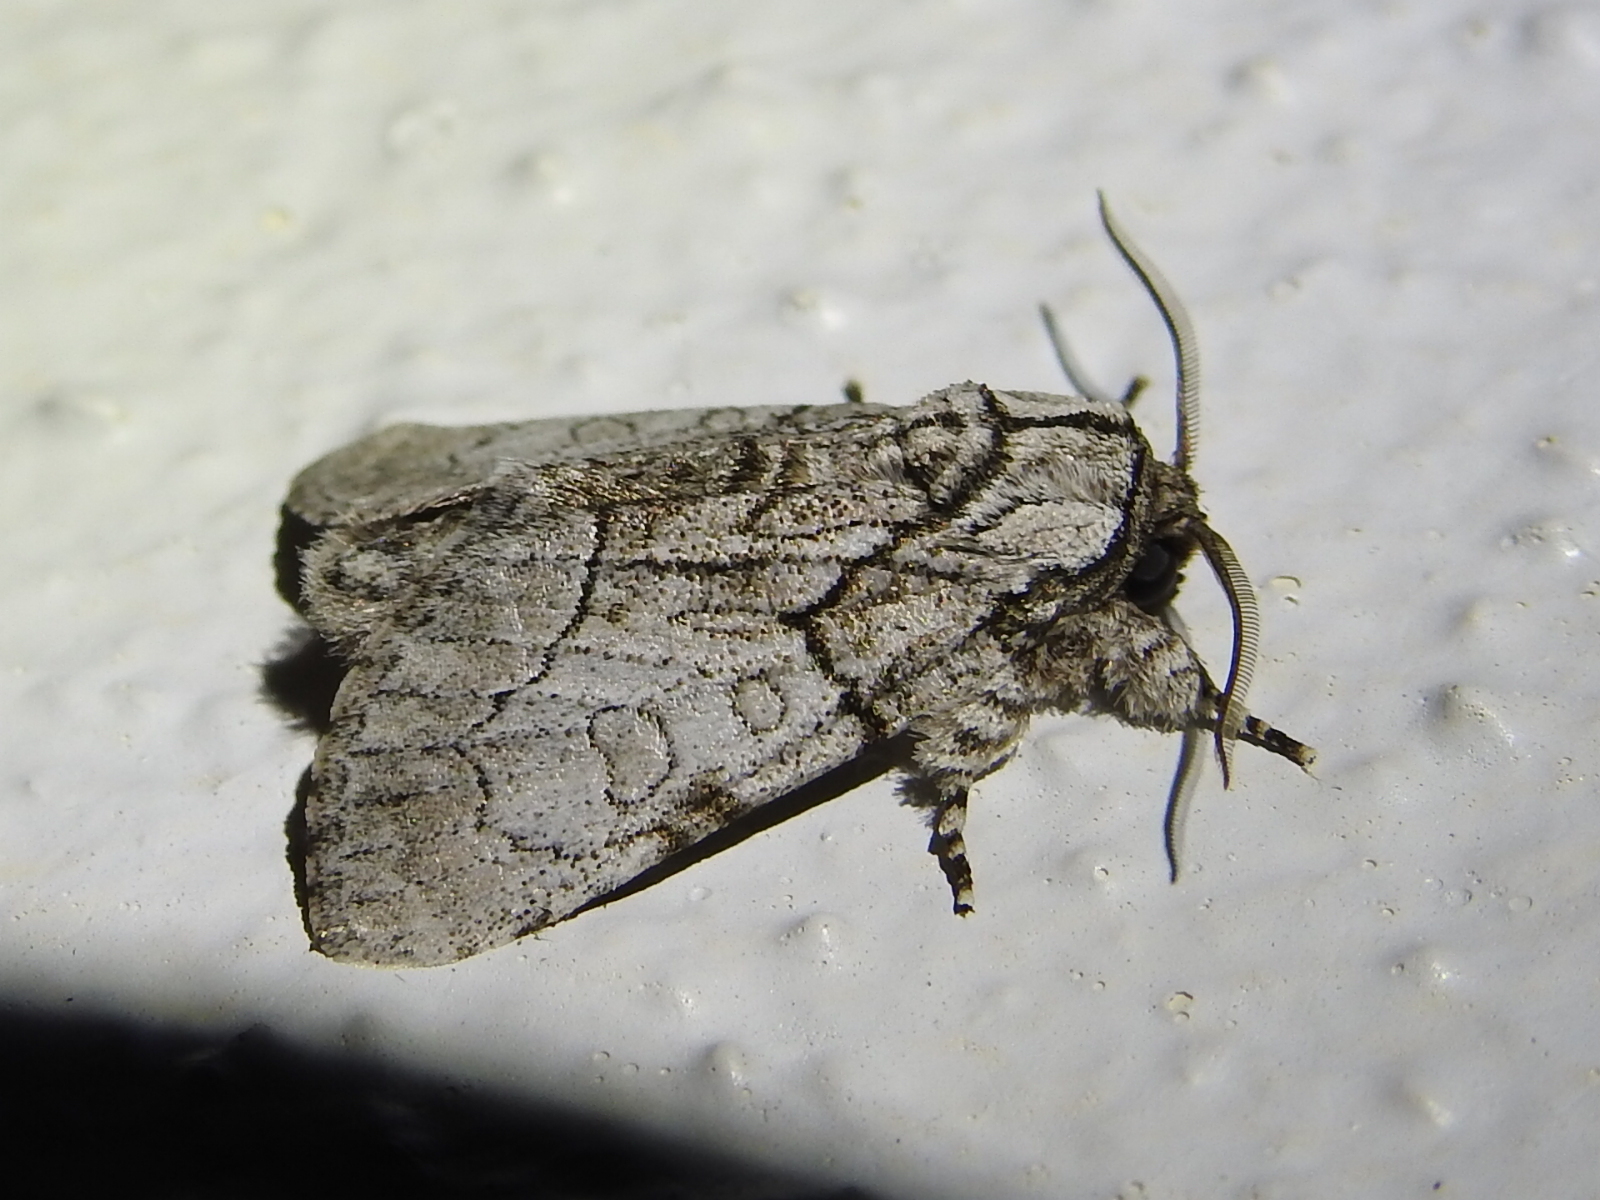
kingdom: Animalia
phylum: Arthropoda
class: Insecta
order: Lepidoptera
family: Noctuidae
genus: Raphia
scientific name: Raphia frater
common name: Brother
